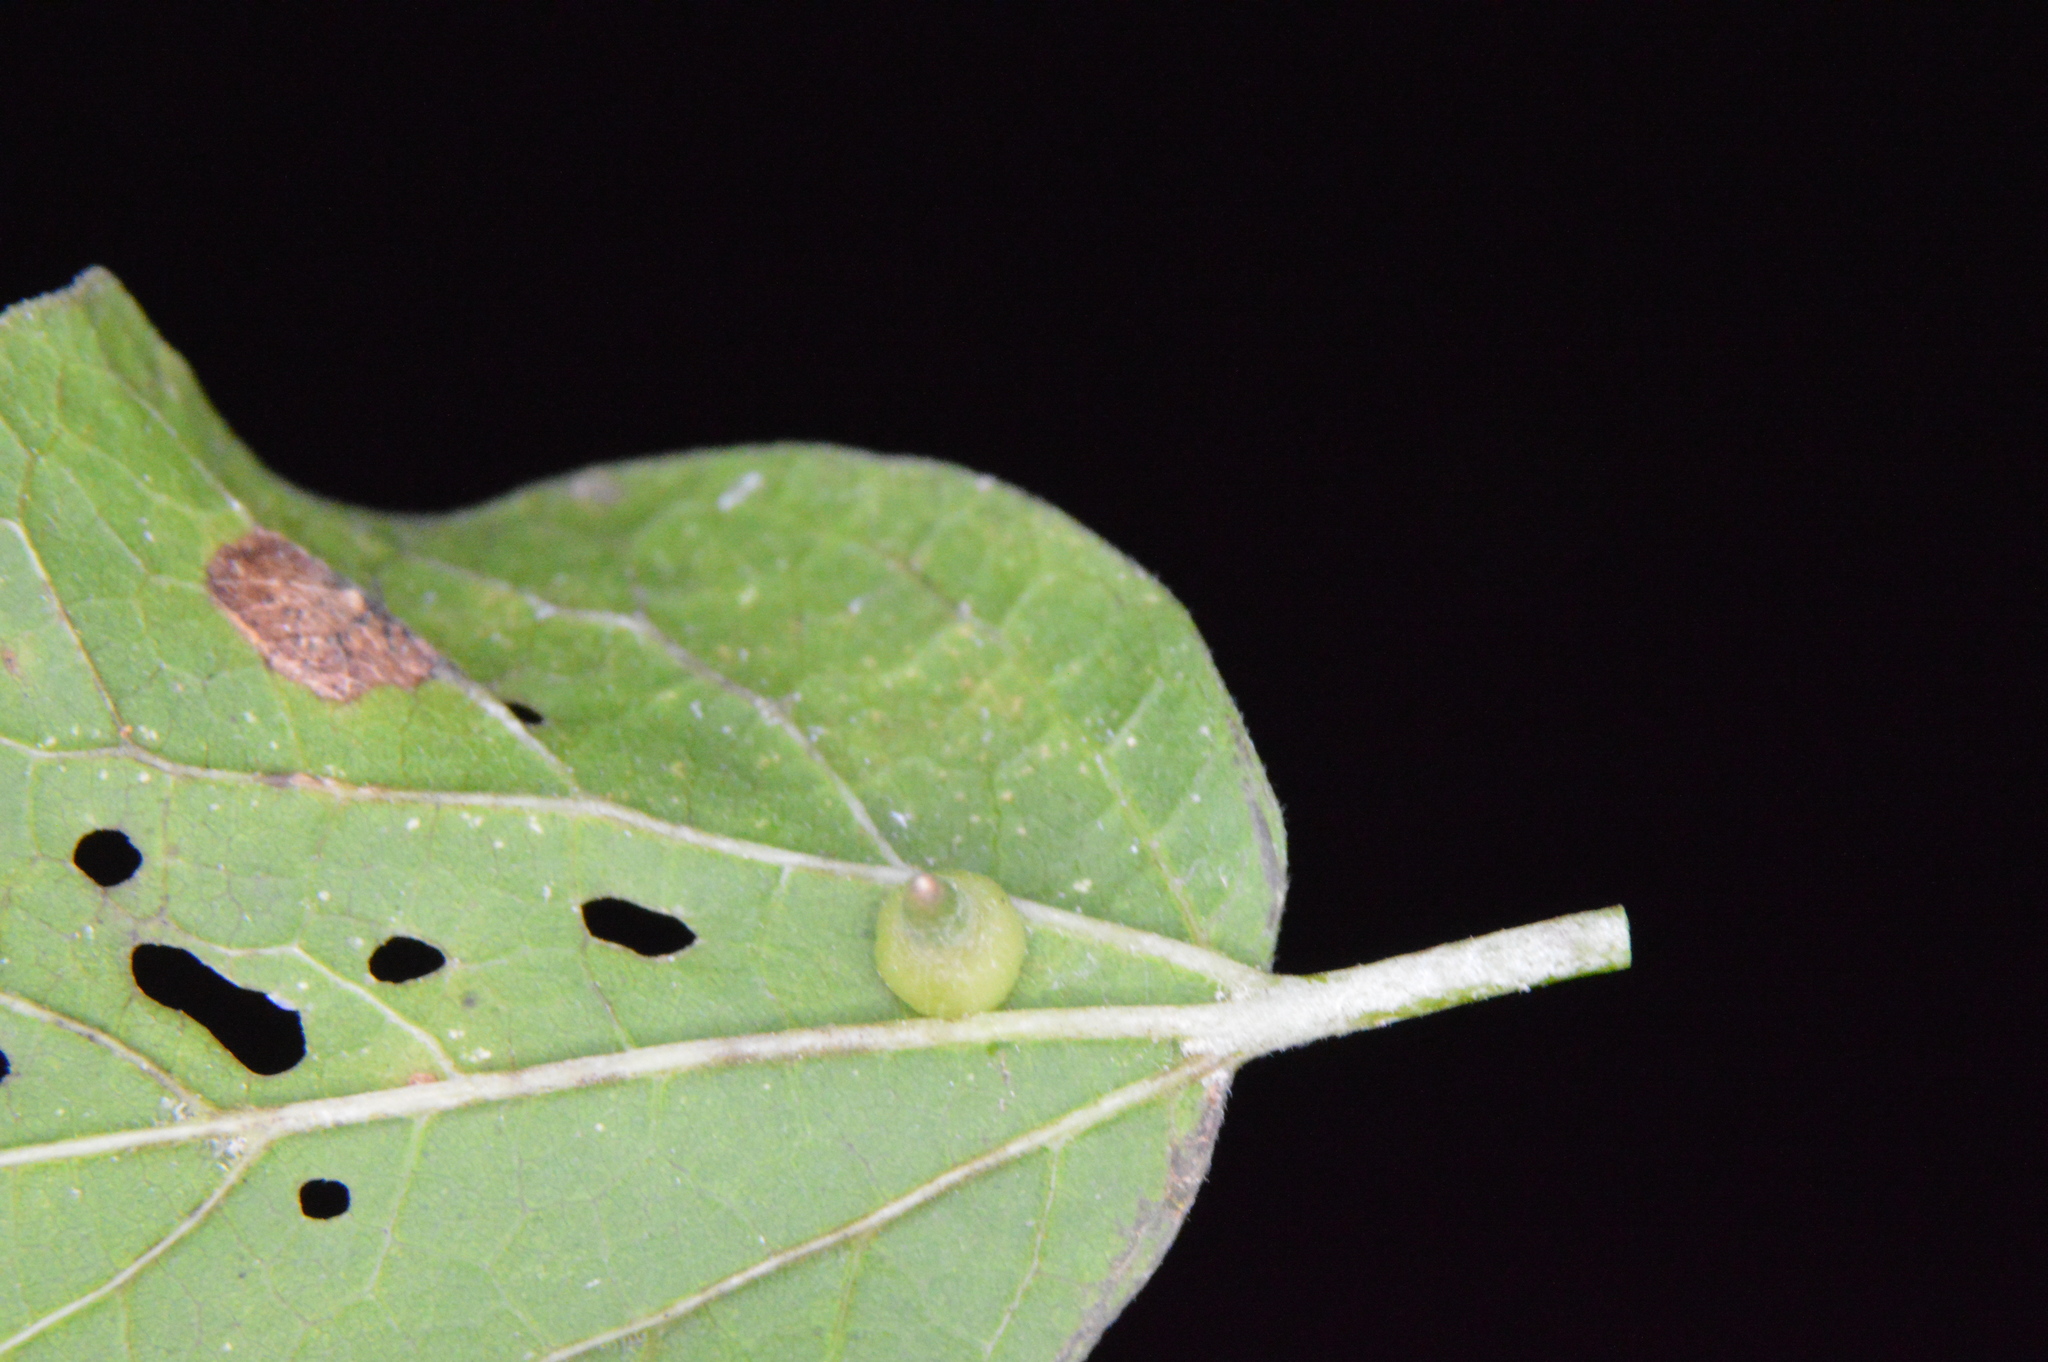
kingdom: Animalia
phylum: Arthropoda
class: Insecta
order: Diptera
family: Cecidomyiidae
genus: Celticecis
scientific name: Celticecis subulata
